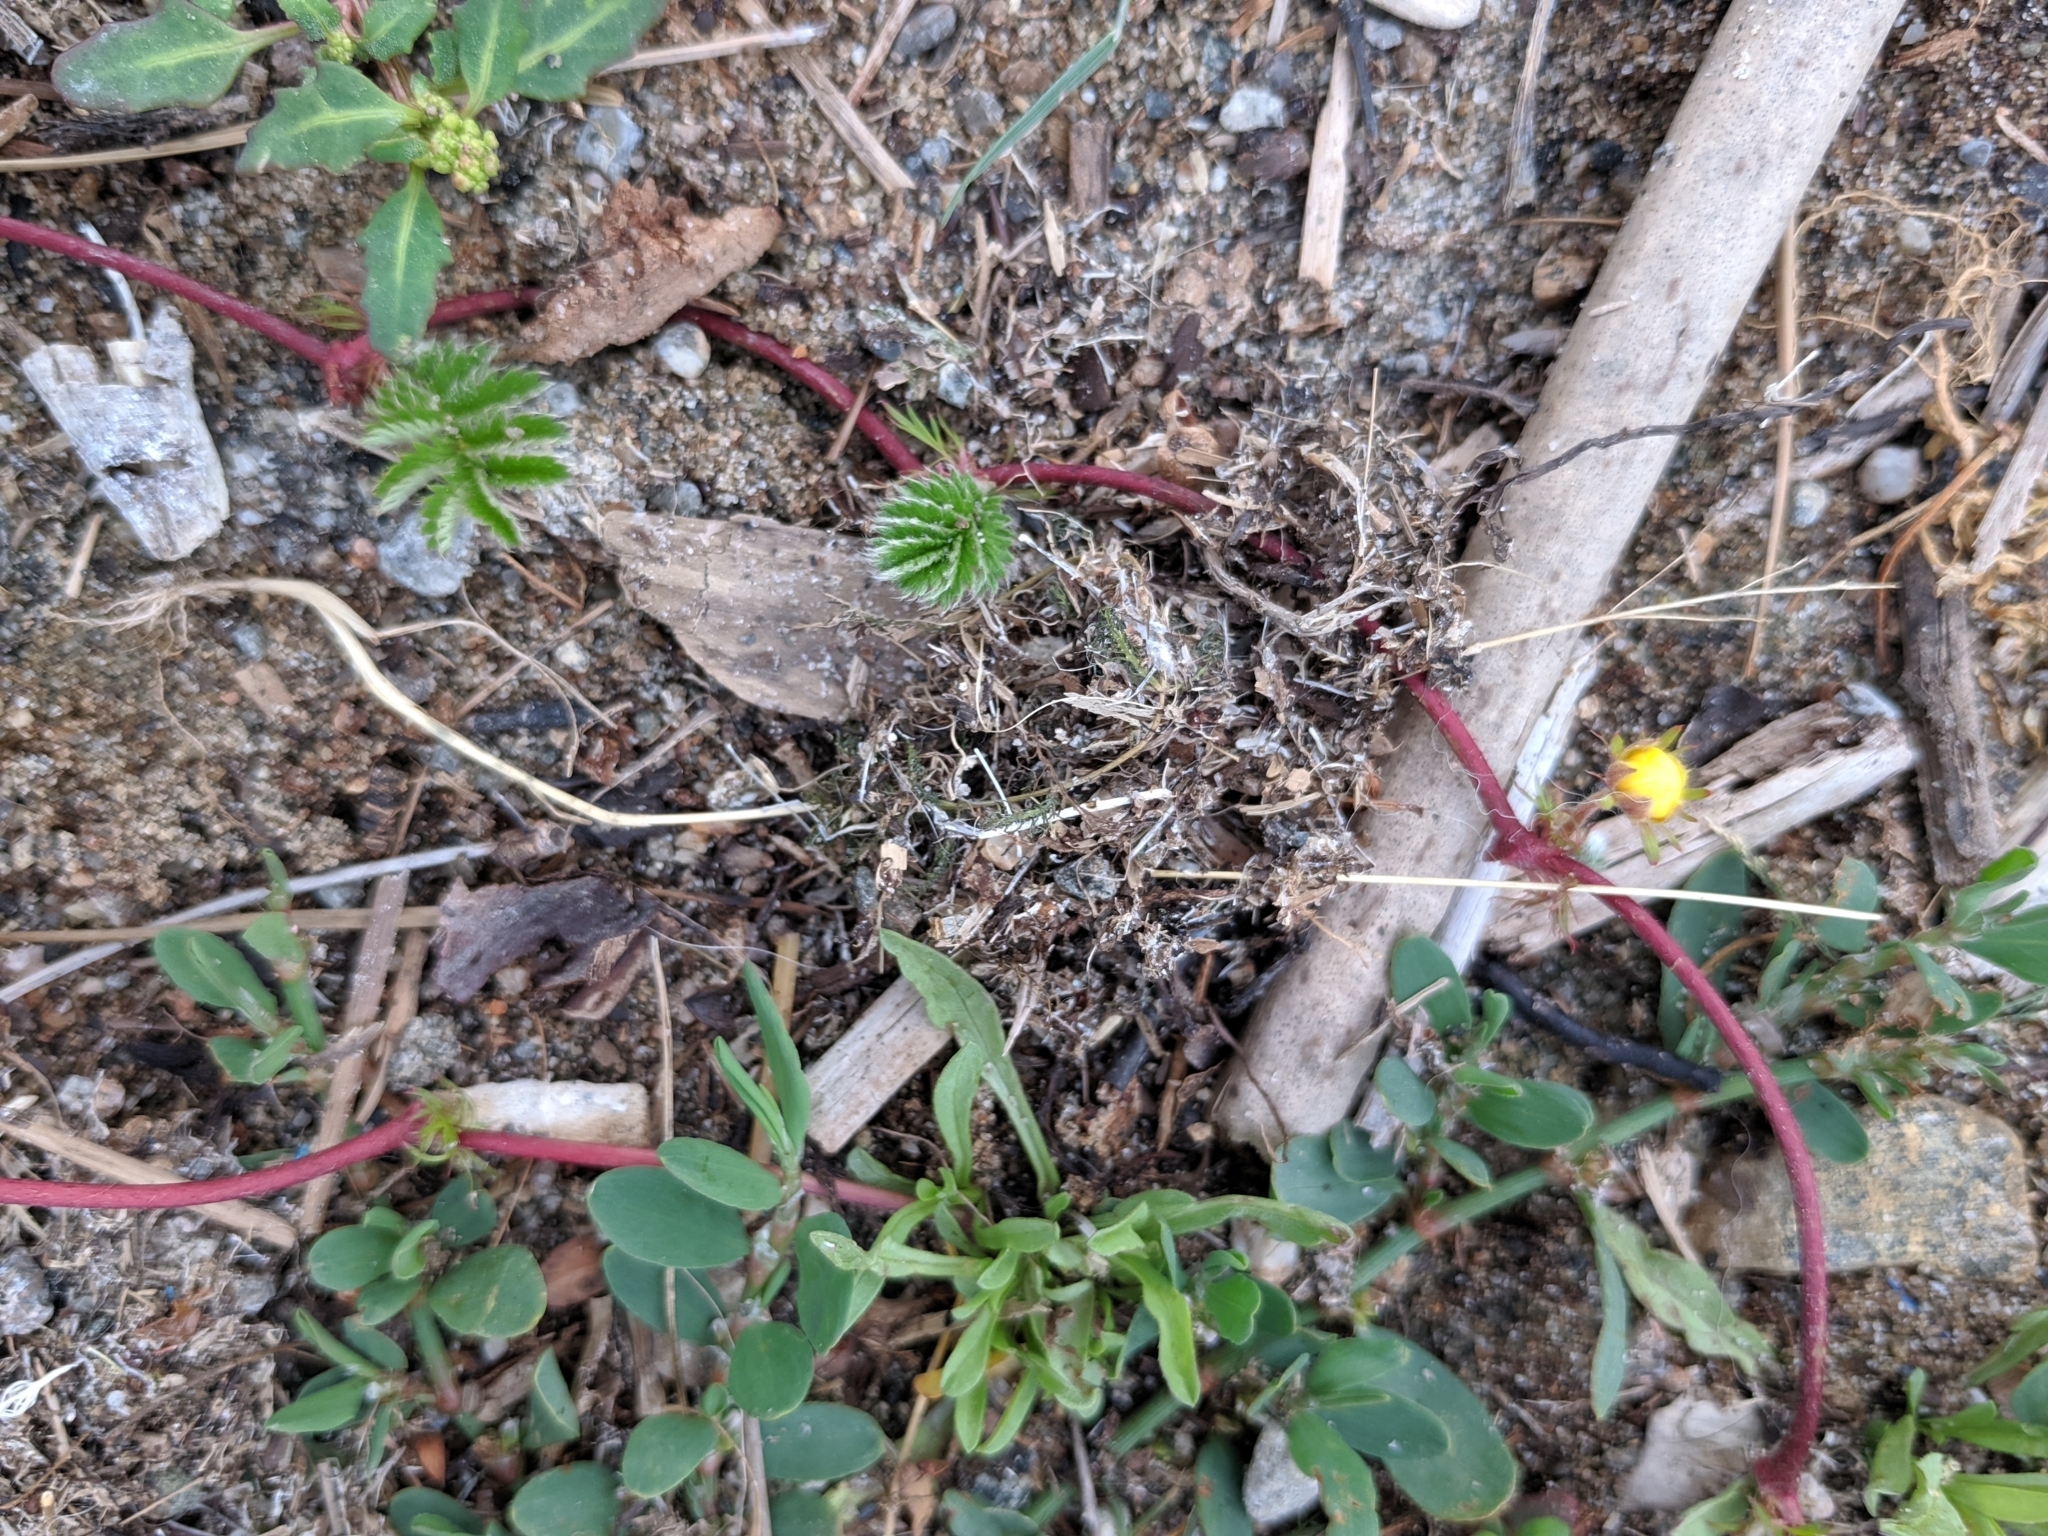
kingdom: Plantae
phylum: Tracheophyta
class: Magnoliopsida
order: Rosales
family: Rosaceae
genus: Argentina
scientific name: Argentina anserina
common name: Common silverweed
